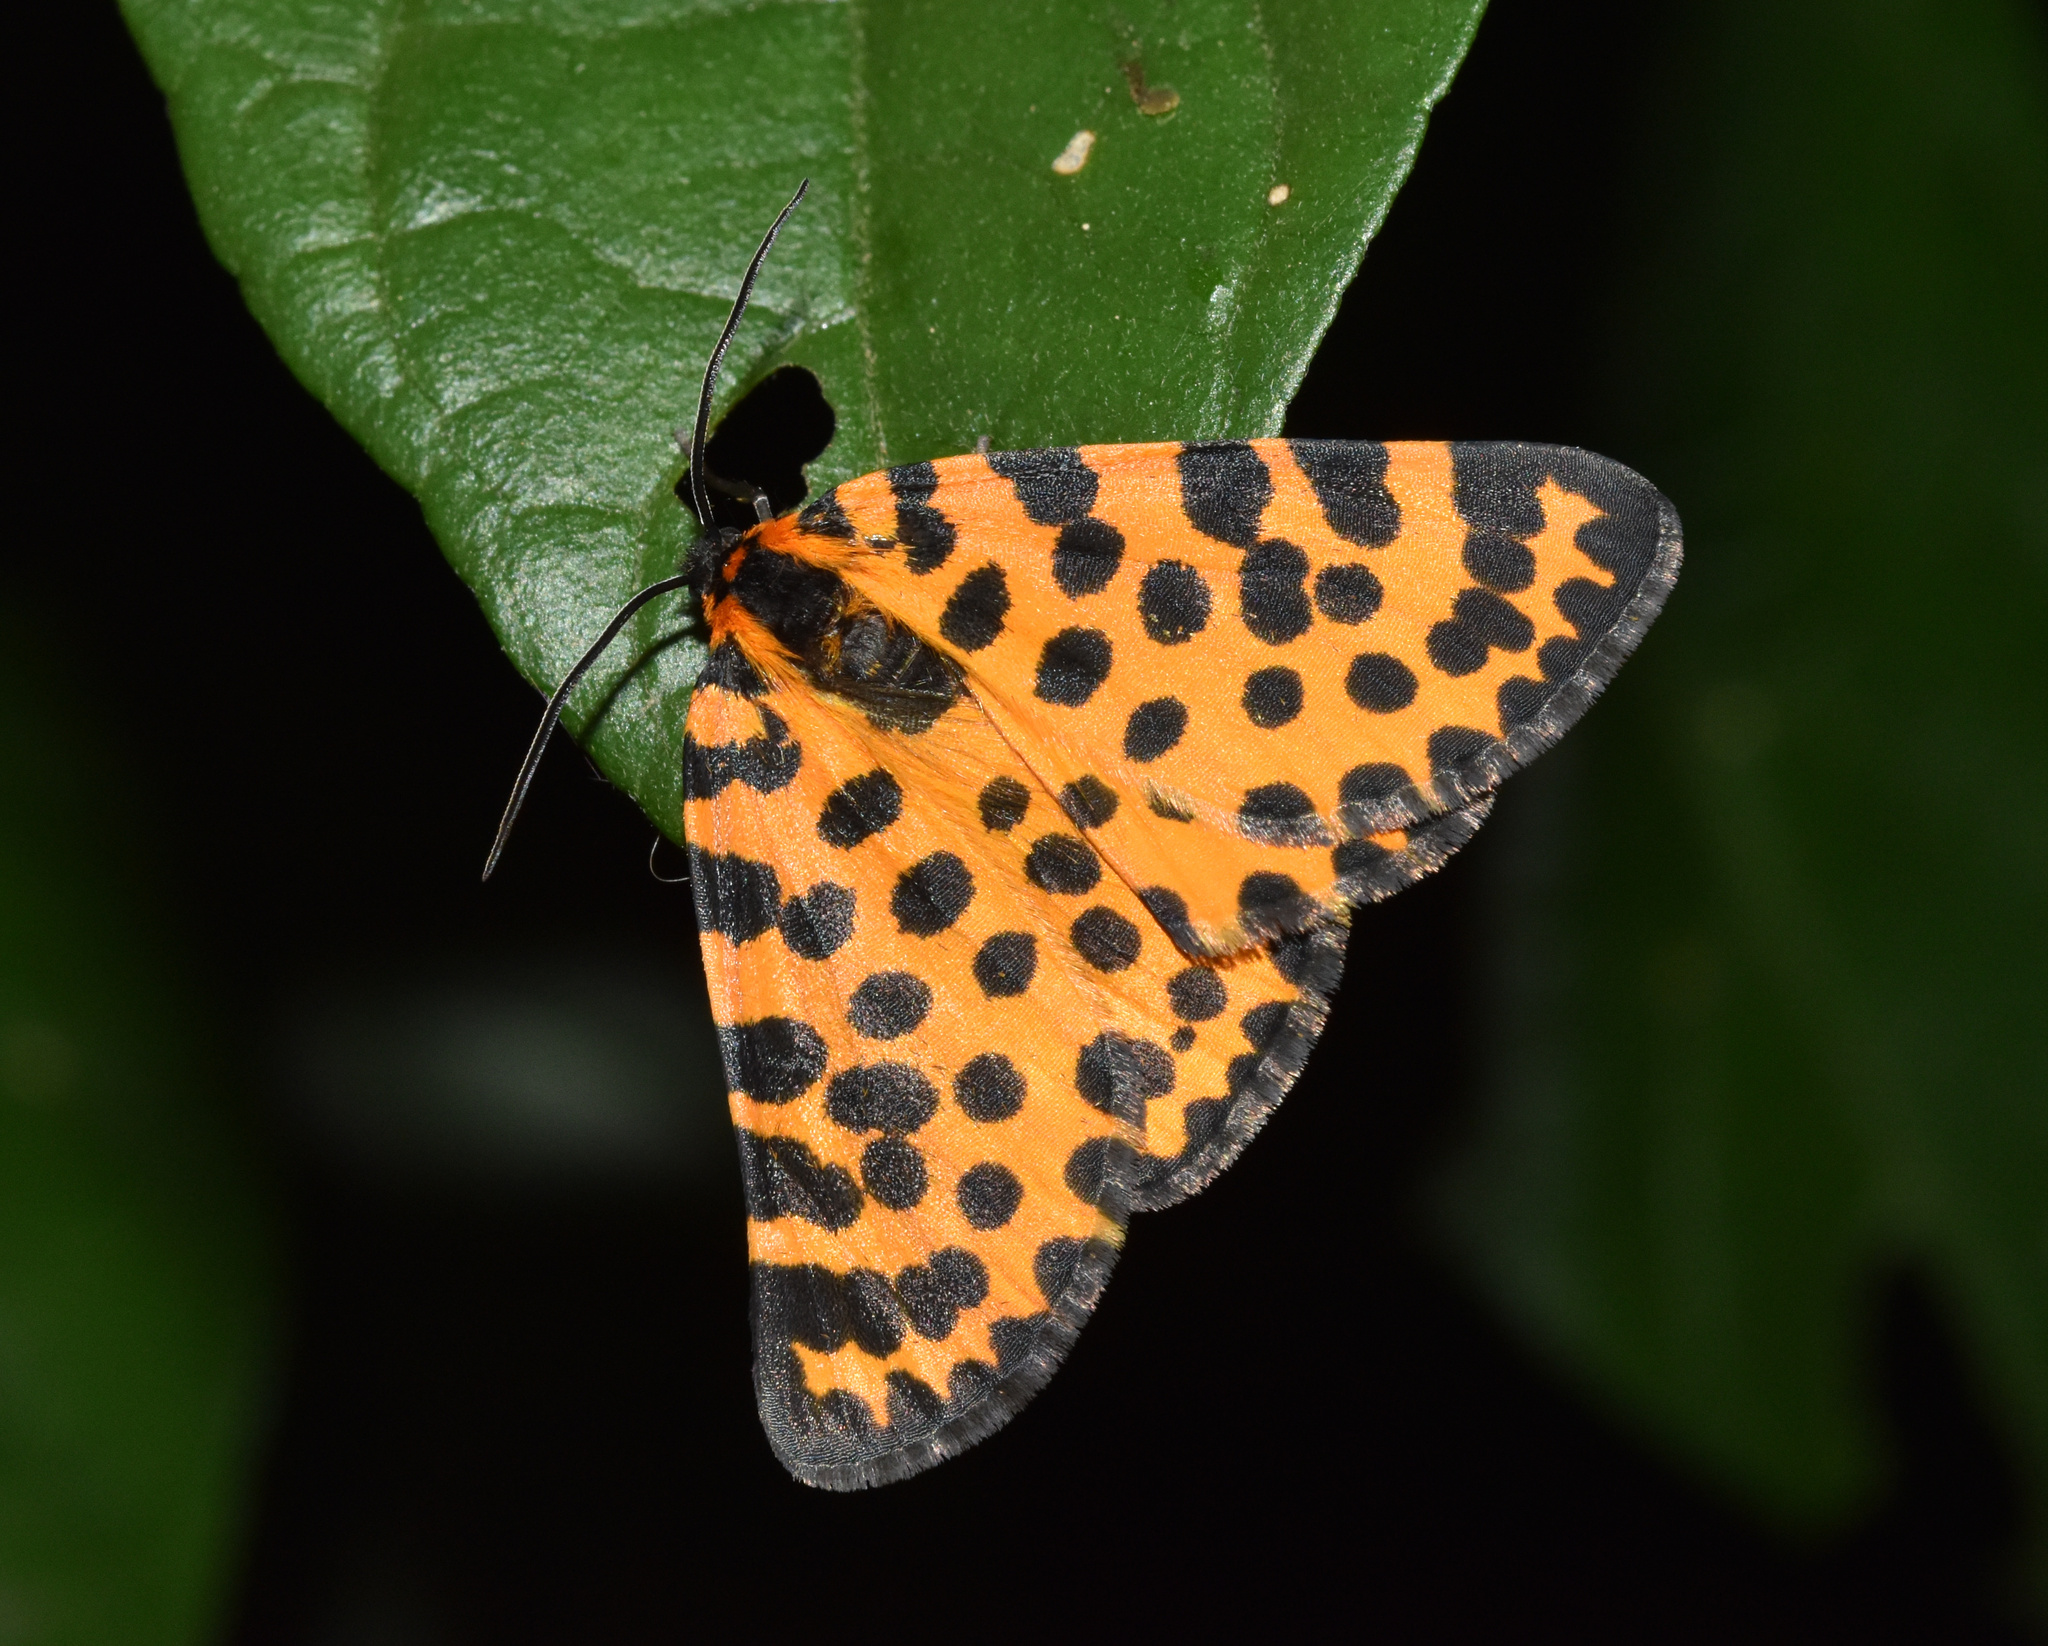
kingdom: Animalia
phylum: Arthropoda
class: Insecta
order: Lepidoptera
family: Geometridae
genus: Zerenopsis
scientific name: Zerenopsis lepida
